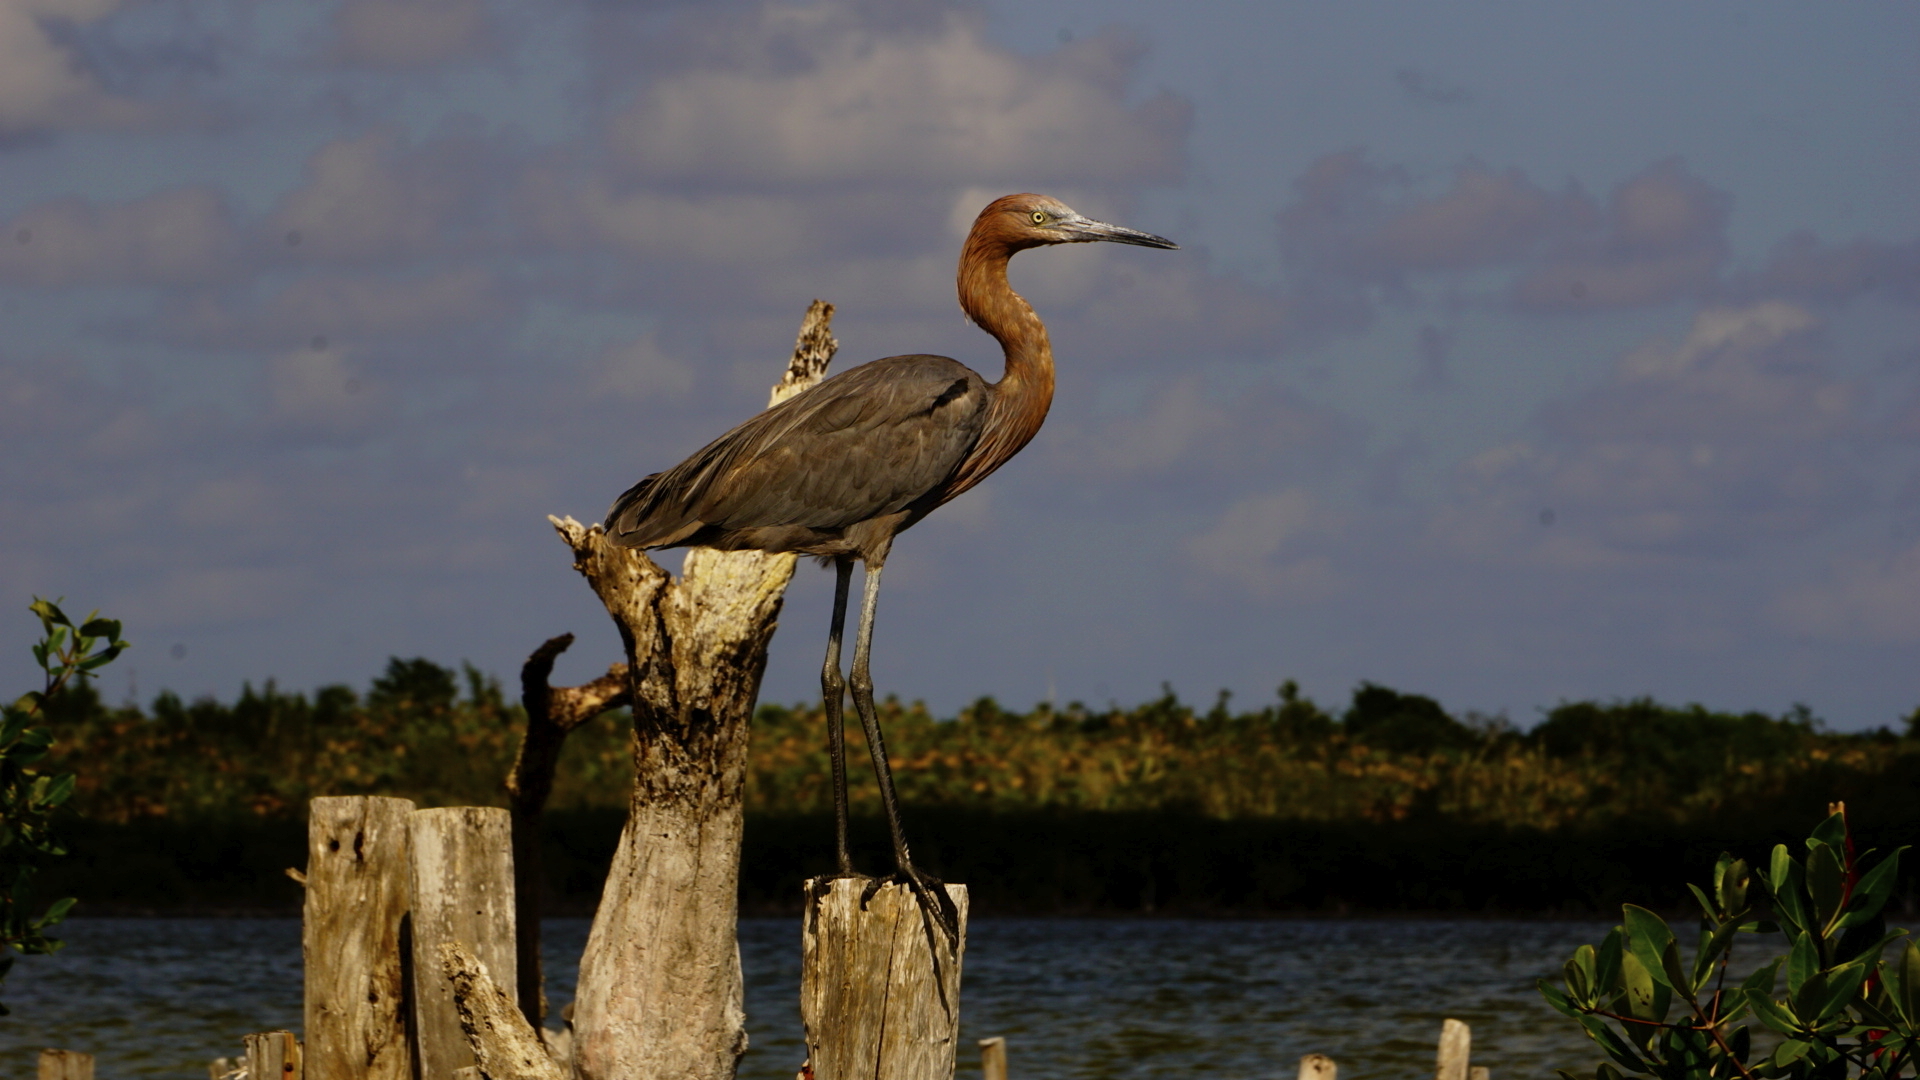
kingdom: Animalia
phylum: Chordata
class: Aves
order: Pelecaniformes
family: Ardeidae
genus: Egretta
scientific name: Egretta rufescens
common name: Reddish egret
